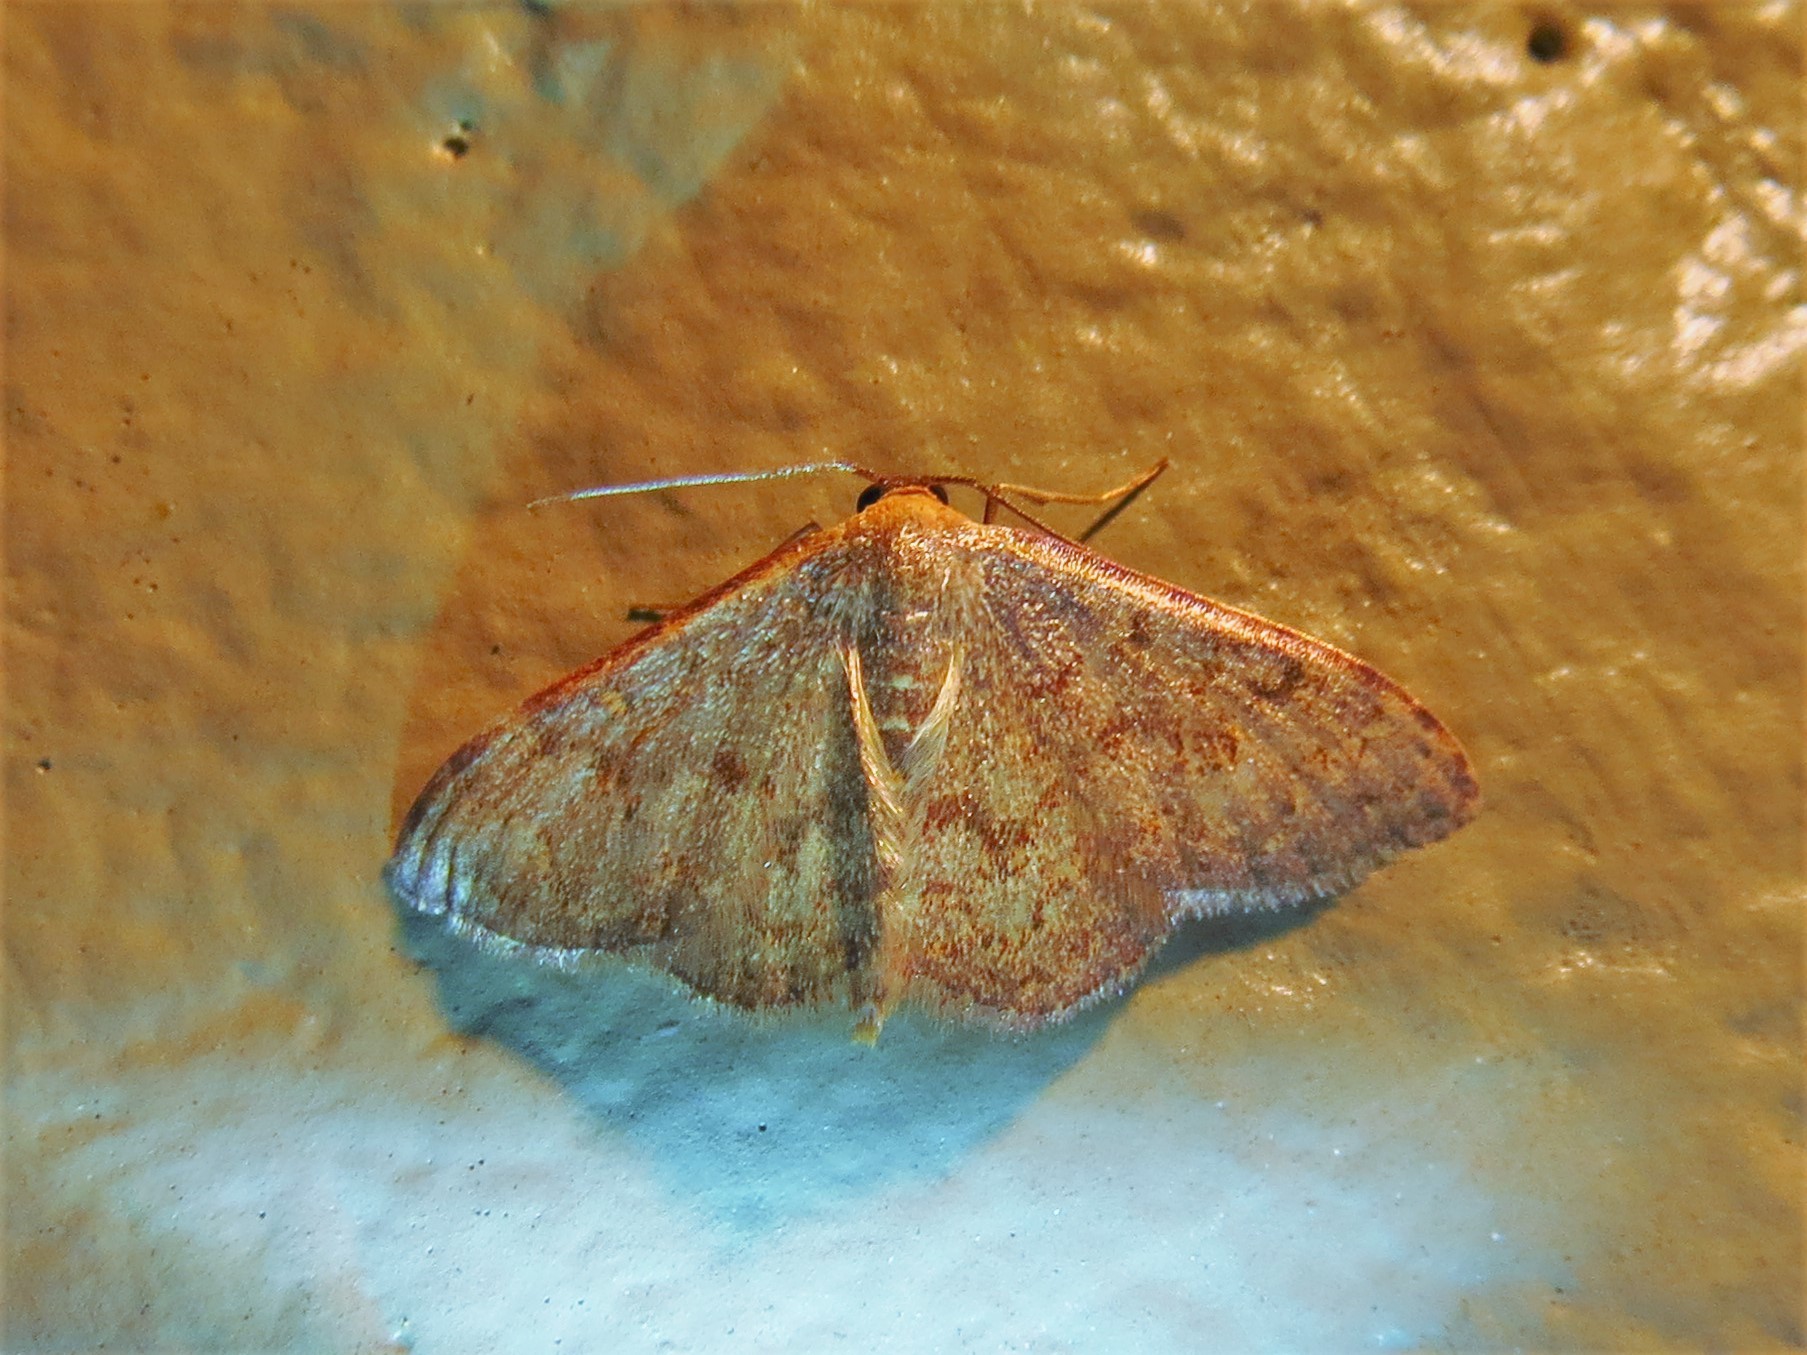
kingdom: Animalia
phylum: Arthropoda
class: Insecta
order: Lepidoptera
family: Geometridae
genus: Leptostales
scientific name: Leptostales pannaria
